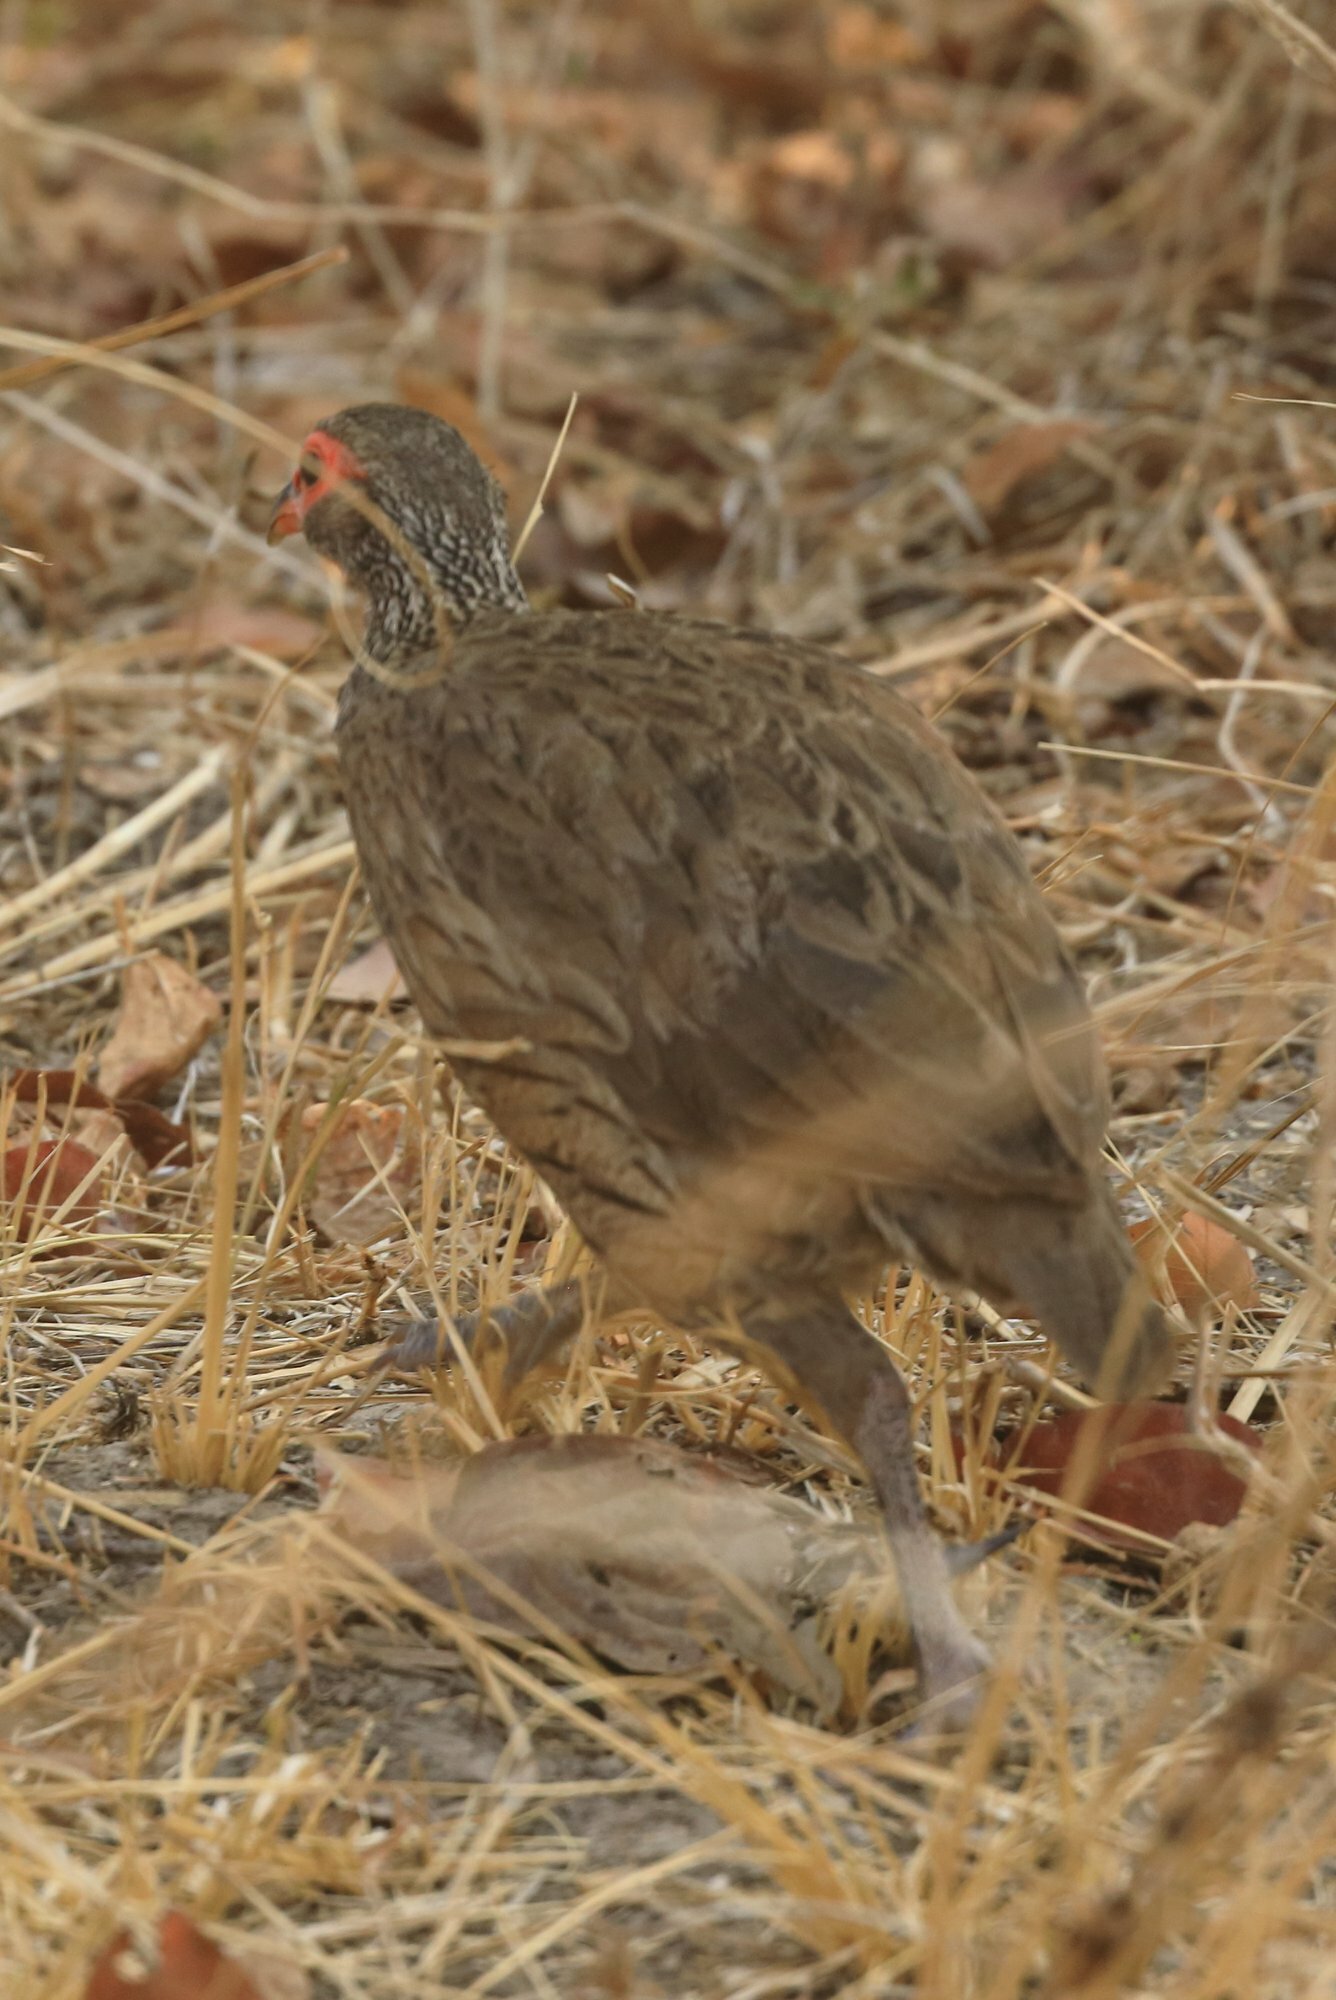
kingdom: Animalia
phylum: Chordata
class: Aves
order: Galliformes
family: Phasianidae
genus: Pternistis
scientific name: Pternistis swainsonii
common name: Swainson's spurfowl
